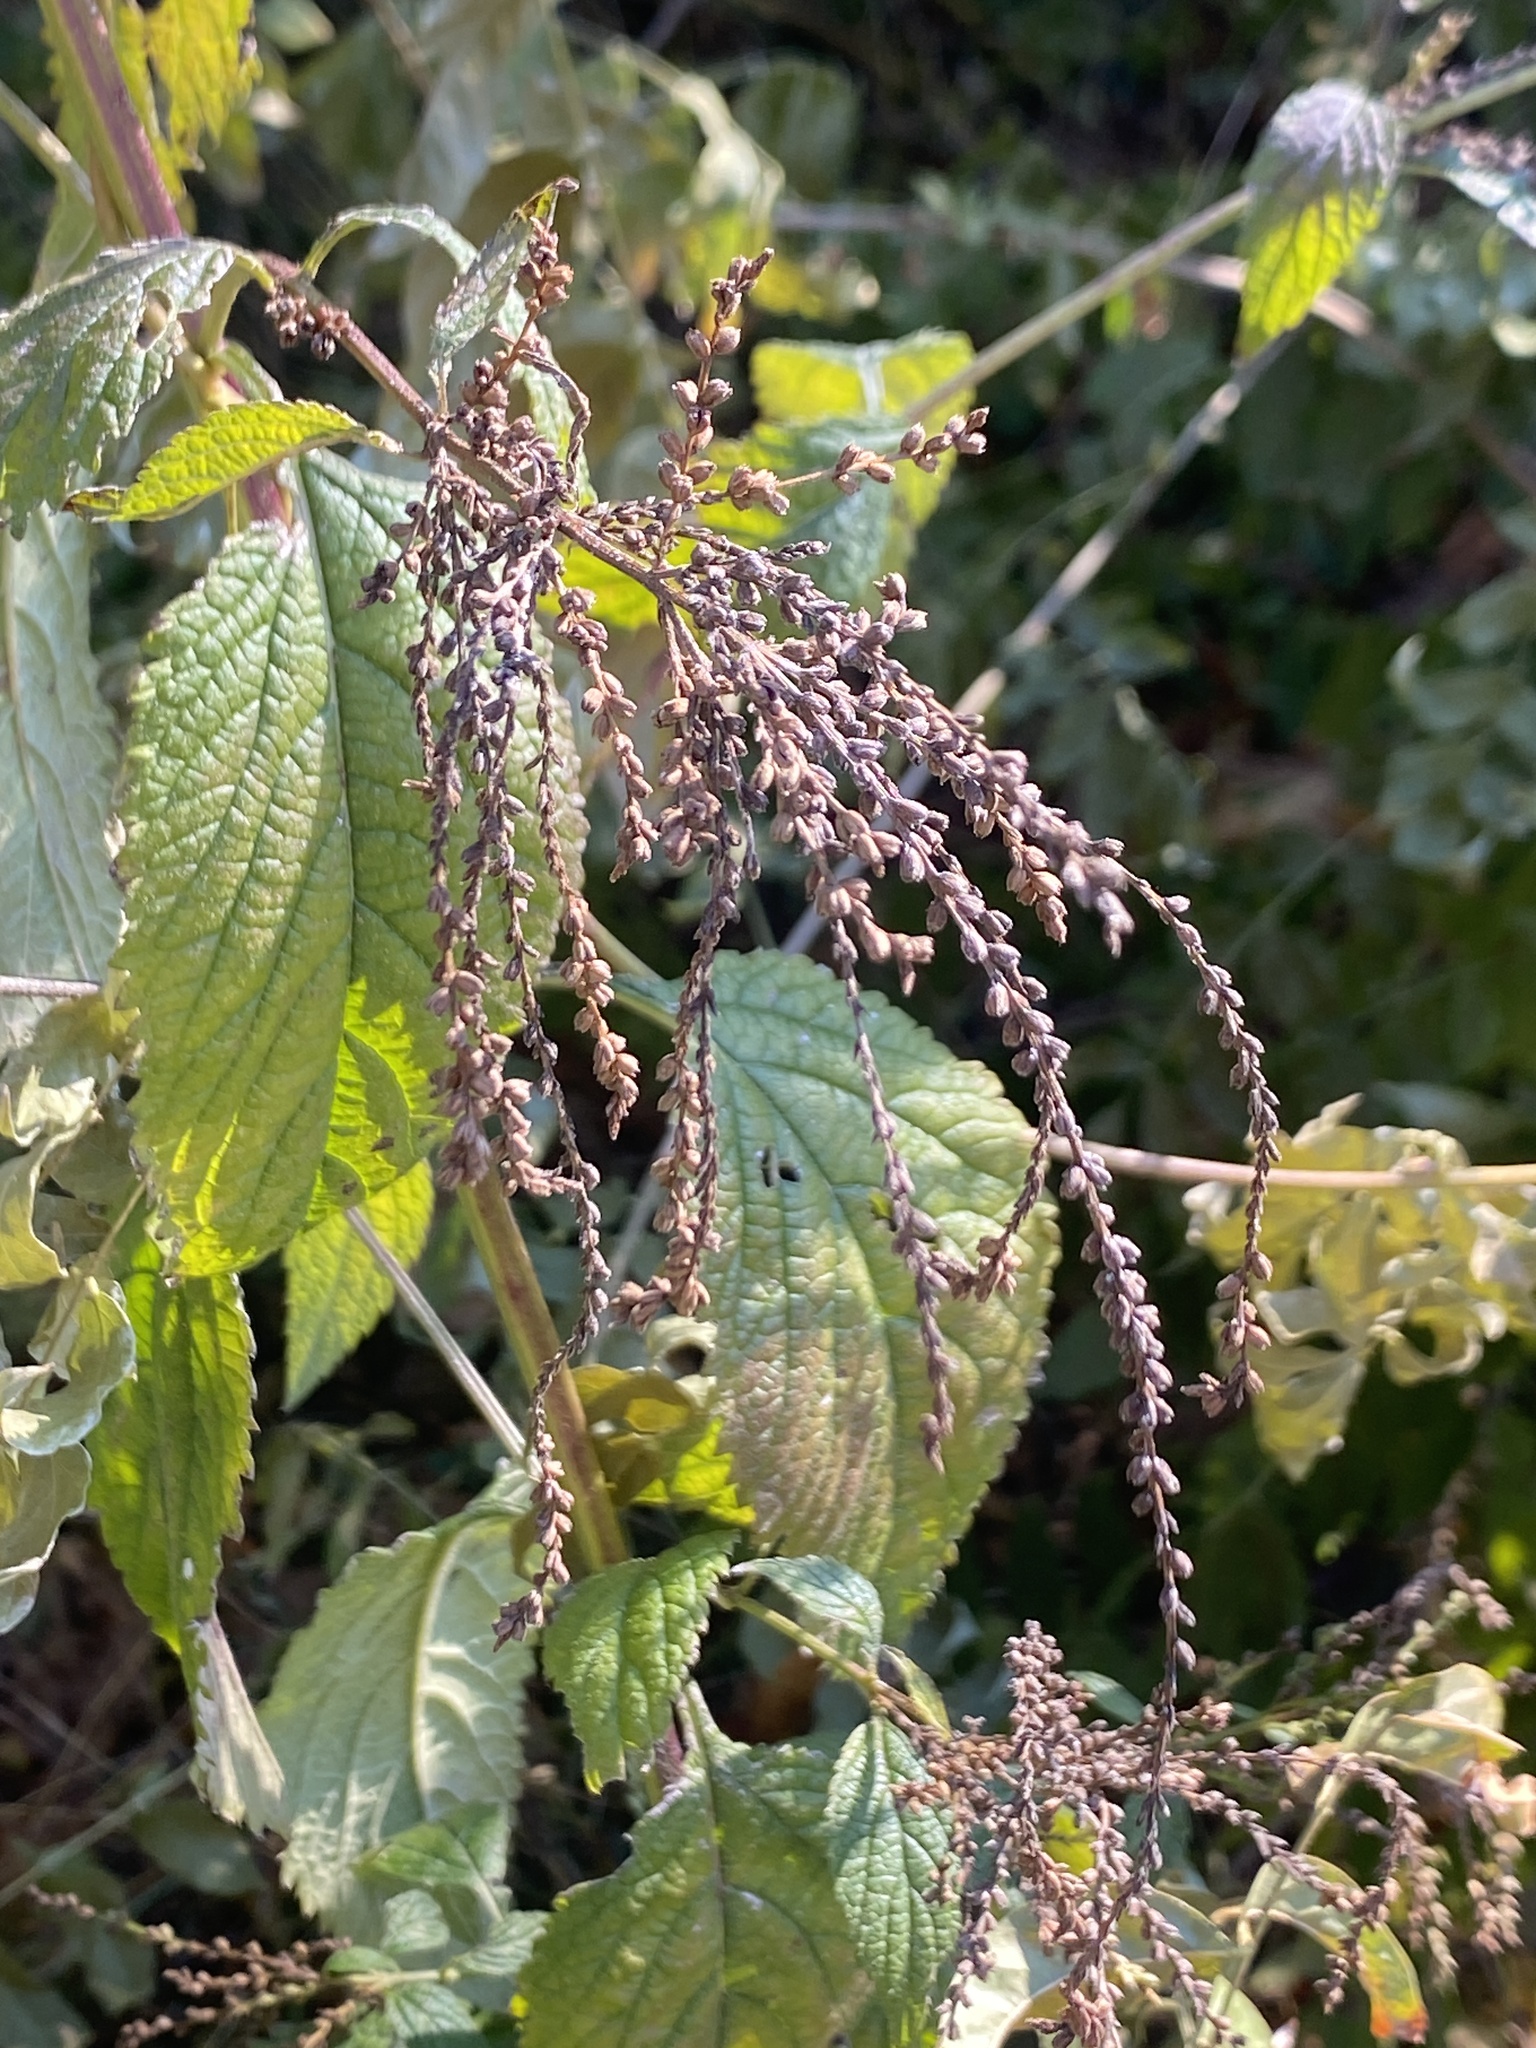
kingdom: Plantae
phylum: Tracheophyta
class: Magnoliopsida
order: Lamiales
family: Verbenaceae
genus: Verbena
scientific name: Verbena urticifolia
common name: Nettle-leaved vervain
